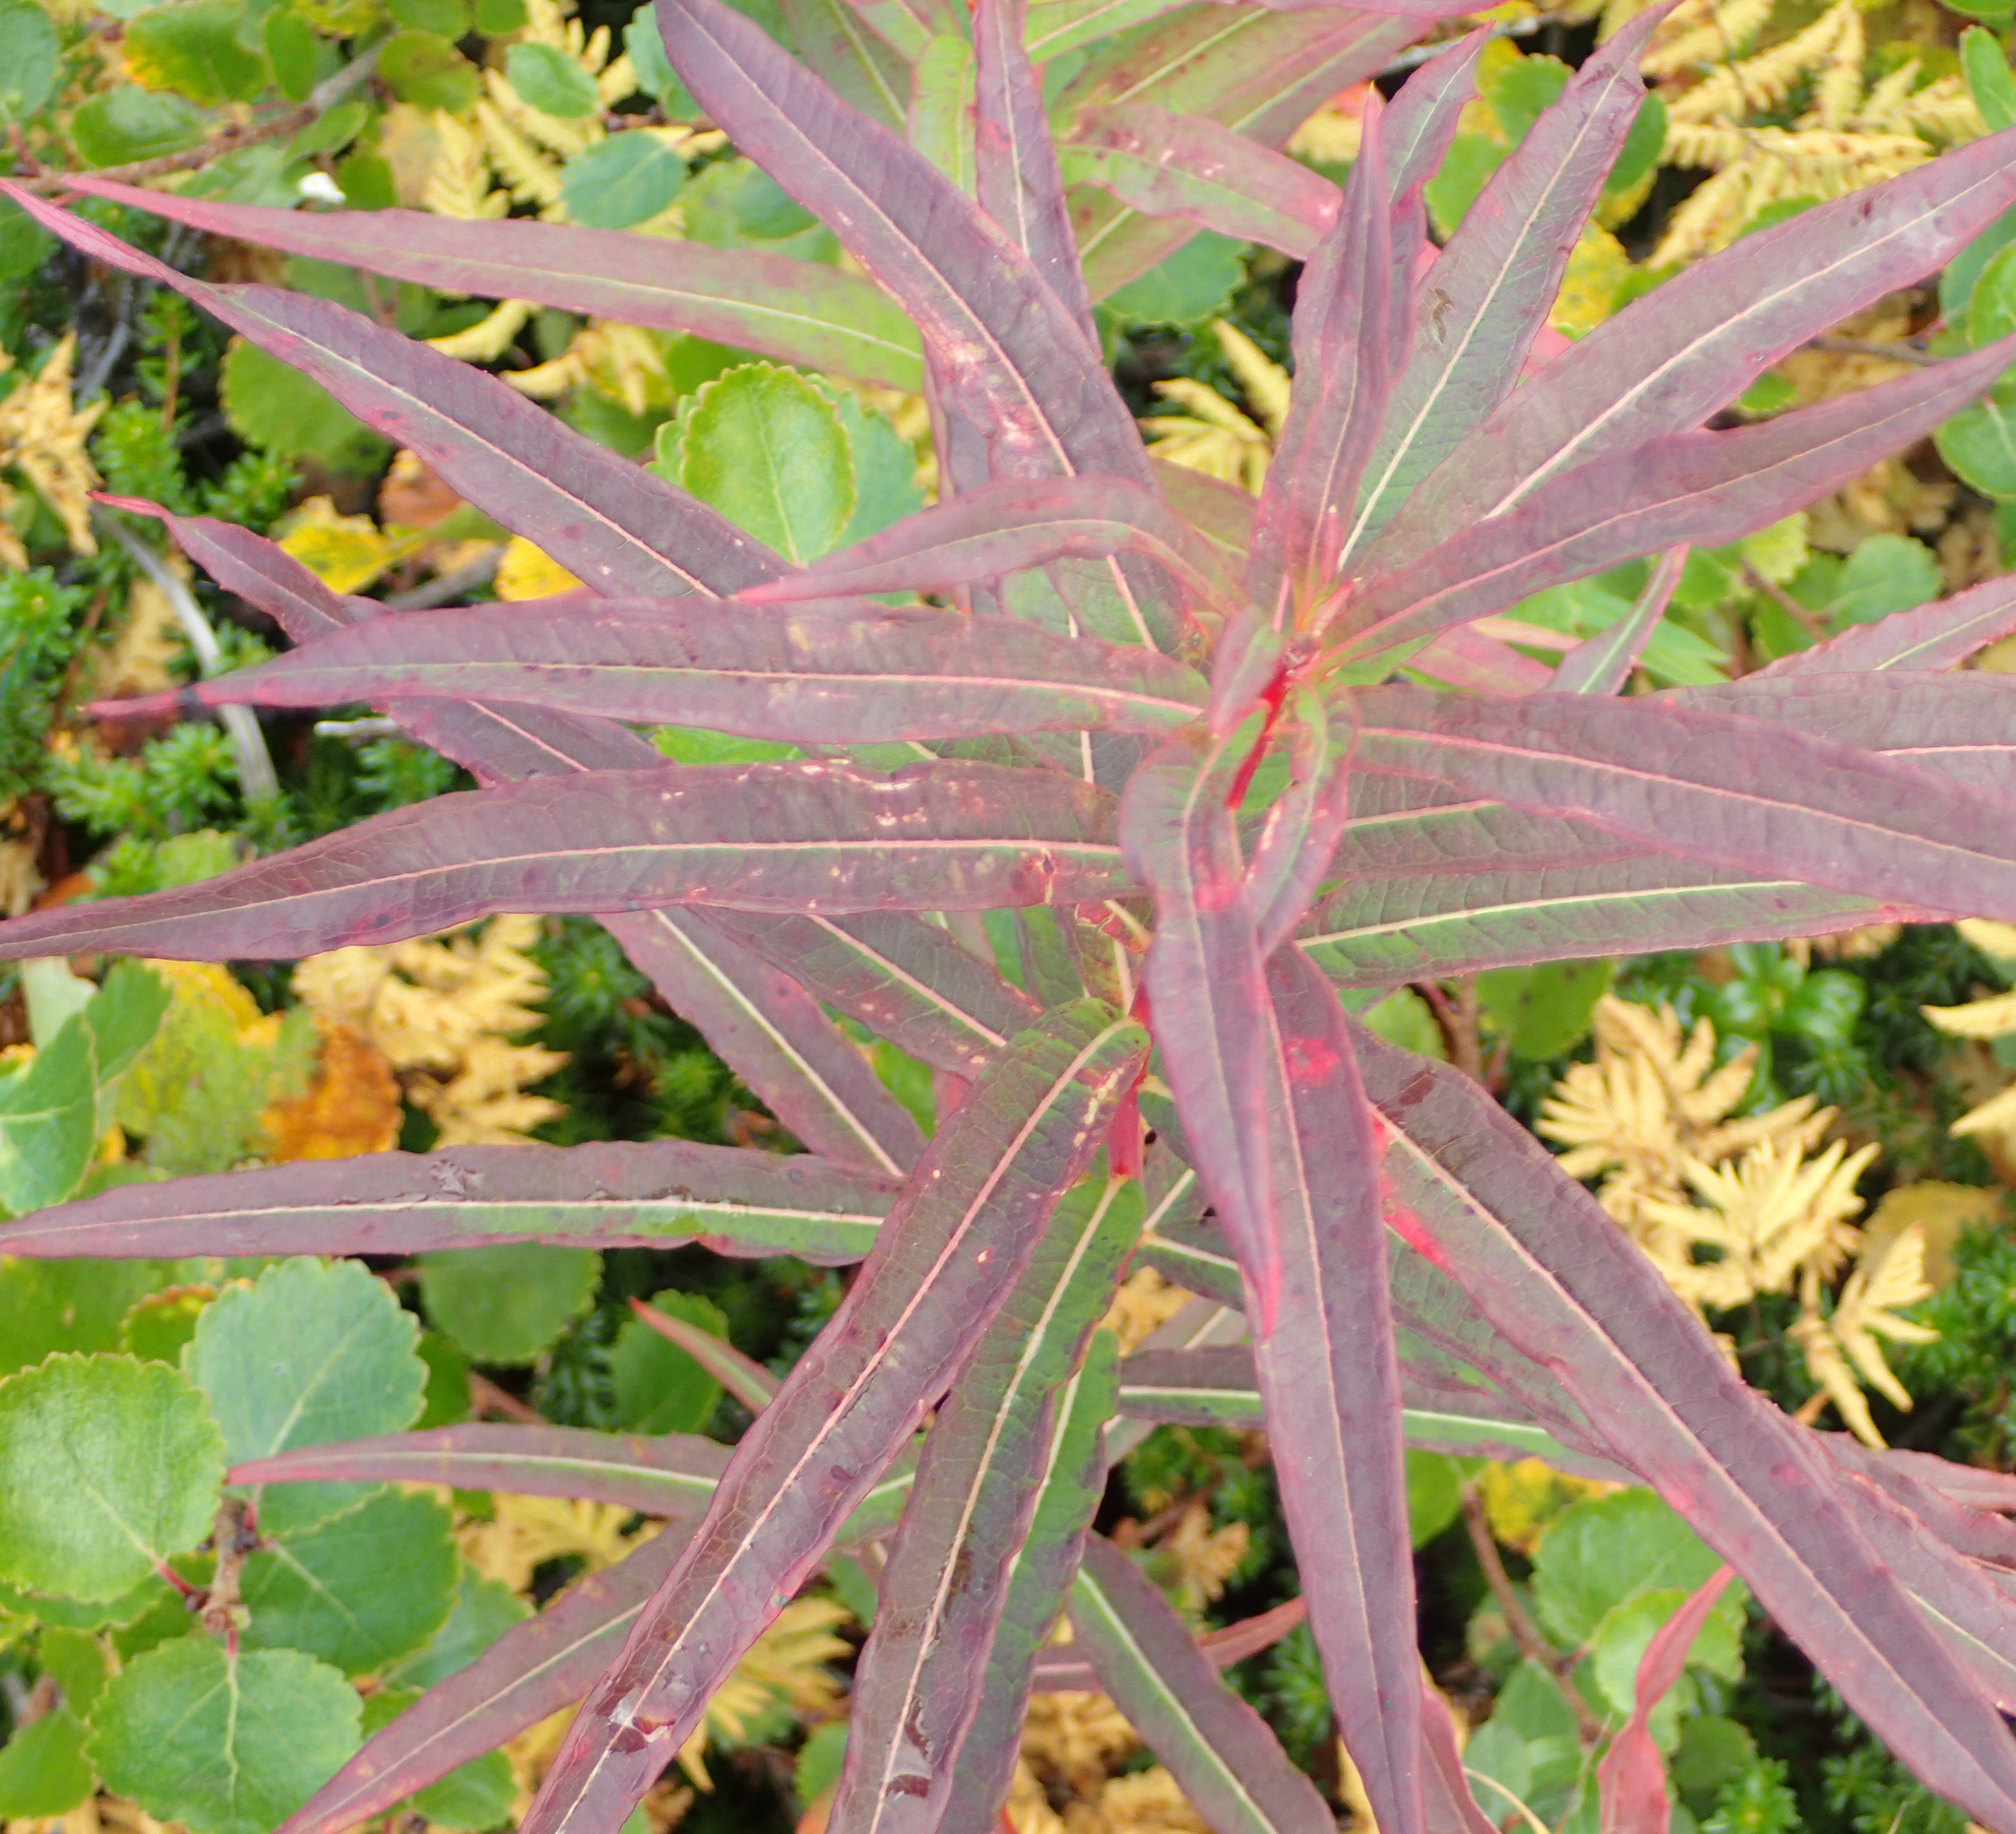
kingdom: Plantae
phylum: Tracheophyta
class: Magnoliopsida
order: Myrtales
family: Onagraceae
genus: Chamaenerion
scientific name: Chamaenerion angustifolium
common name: Fireweed
